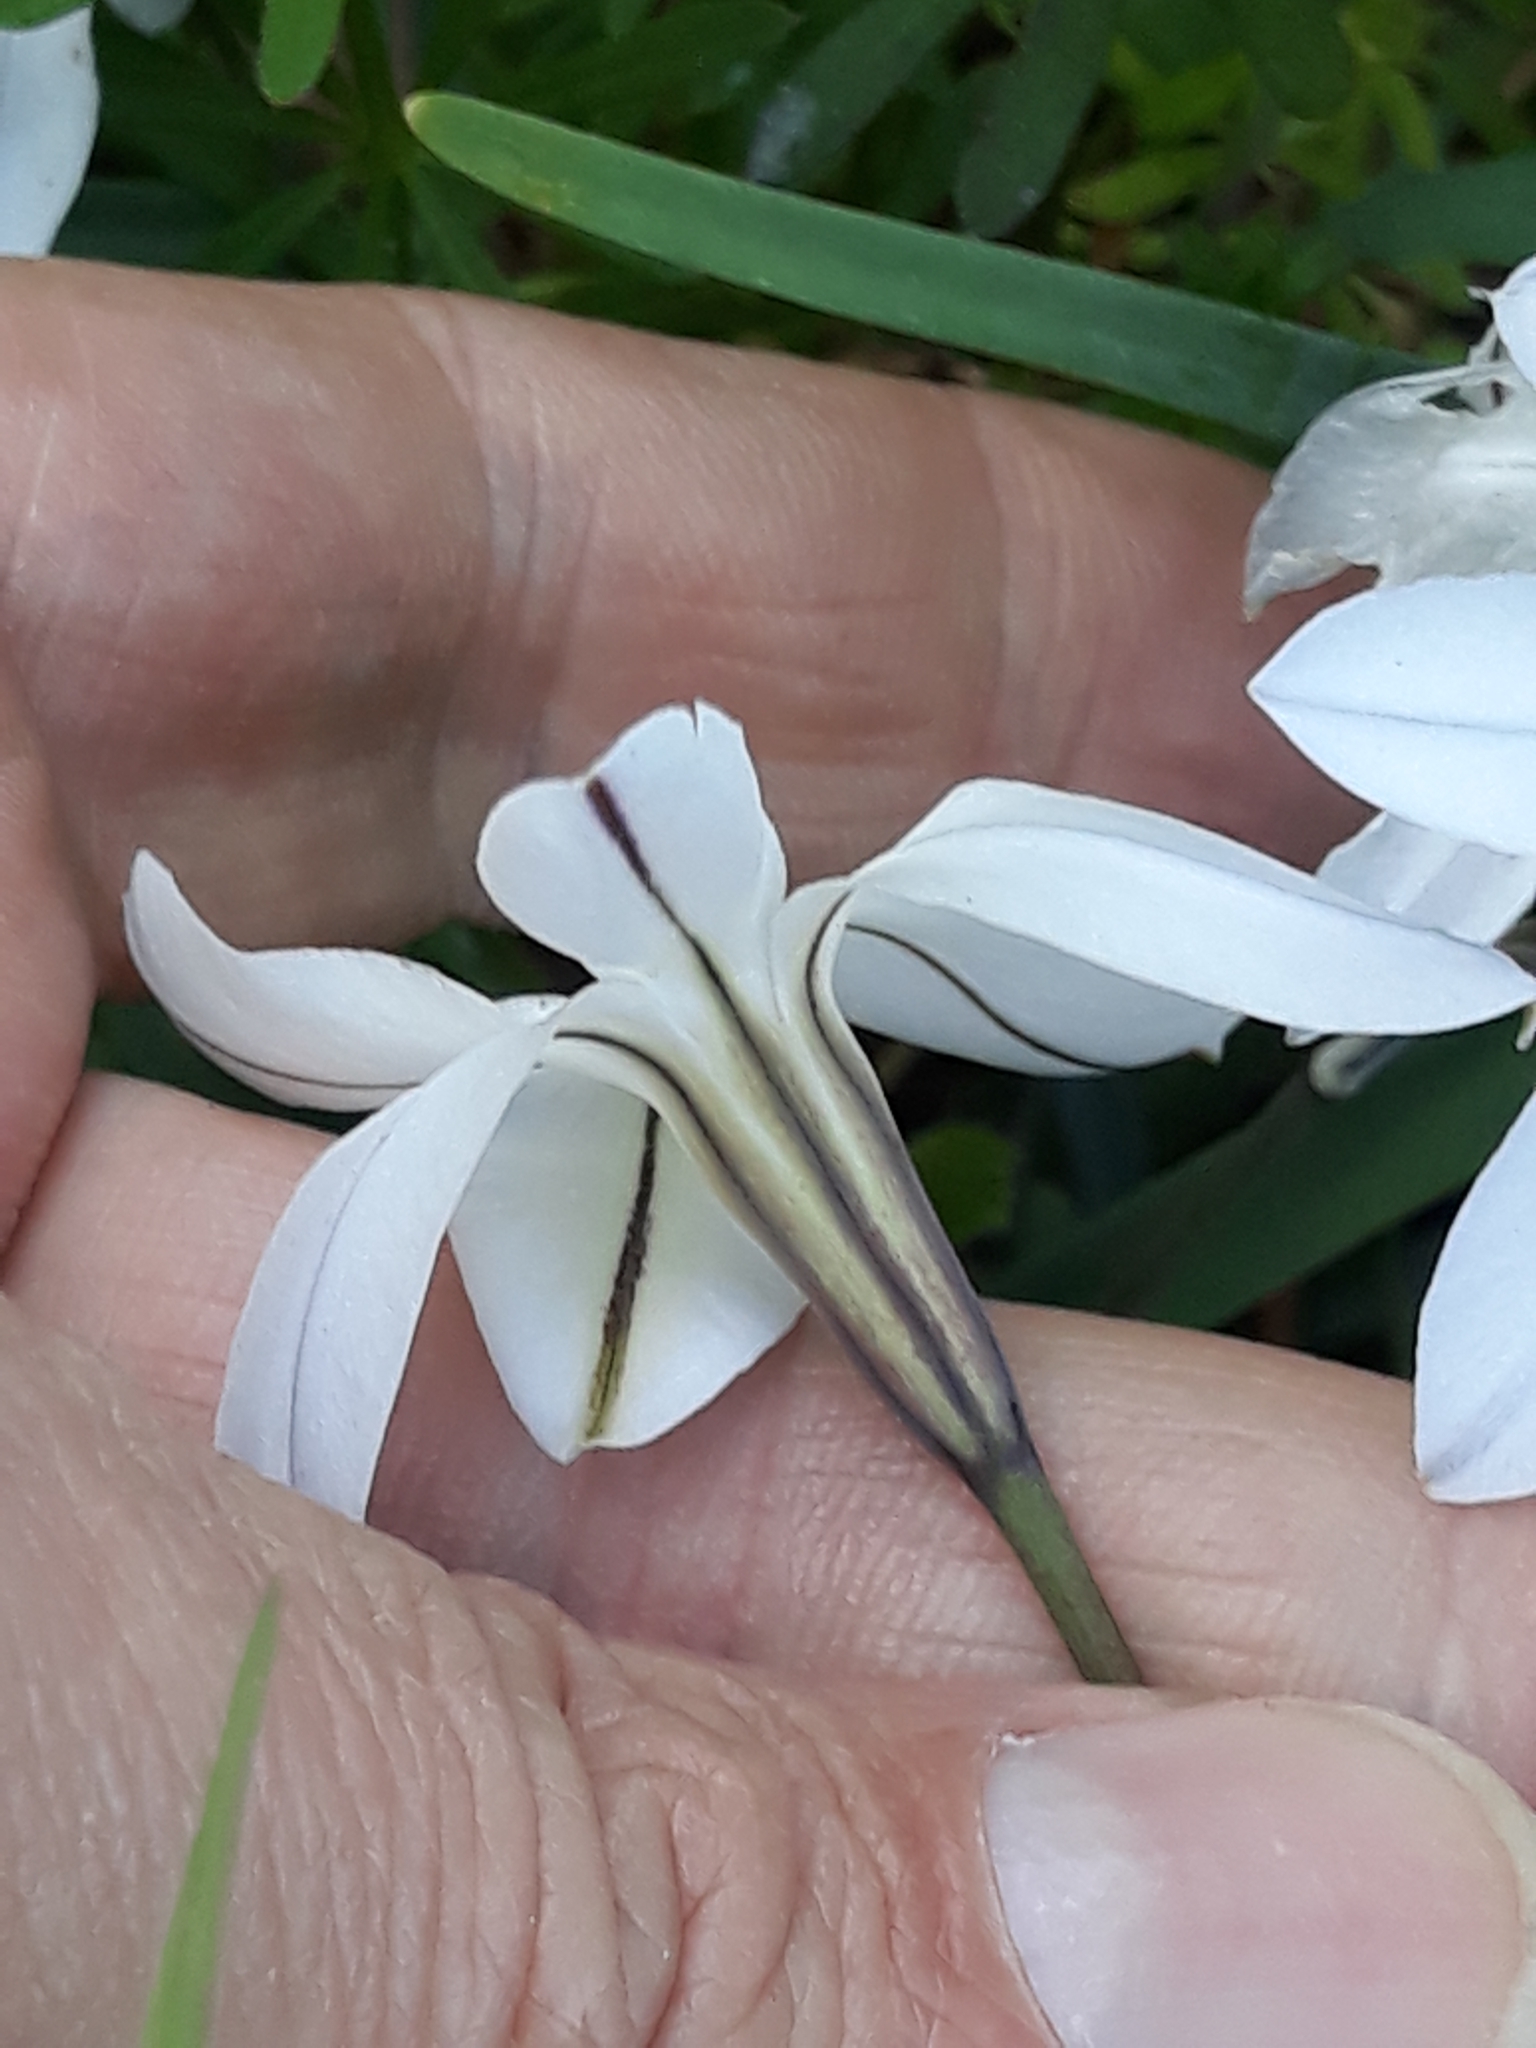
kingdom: Plantae
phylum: Tracheophyta
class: Liliopsida
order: Asparagales
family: Amaryllidaceae
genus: Ipheion
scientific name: Ipheion uniflorum
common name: Spring starflower
